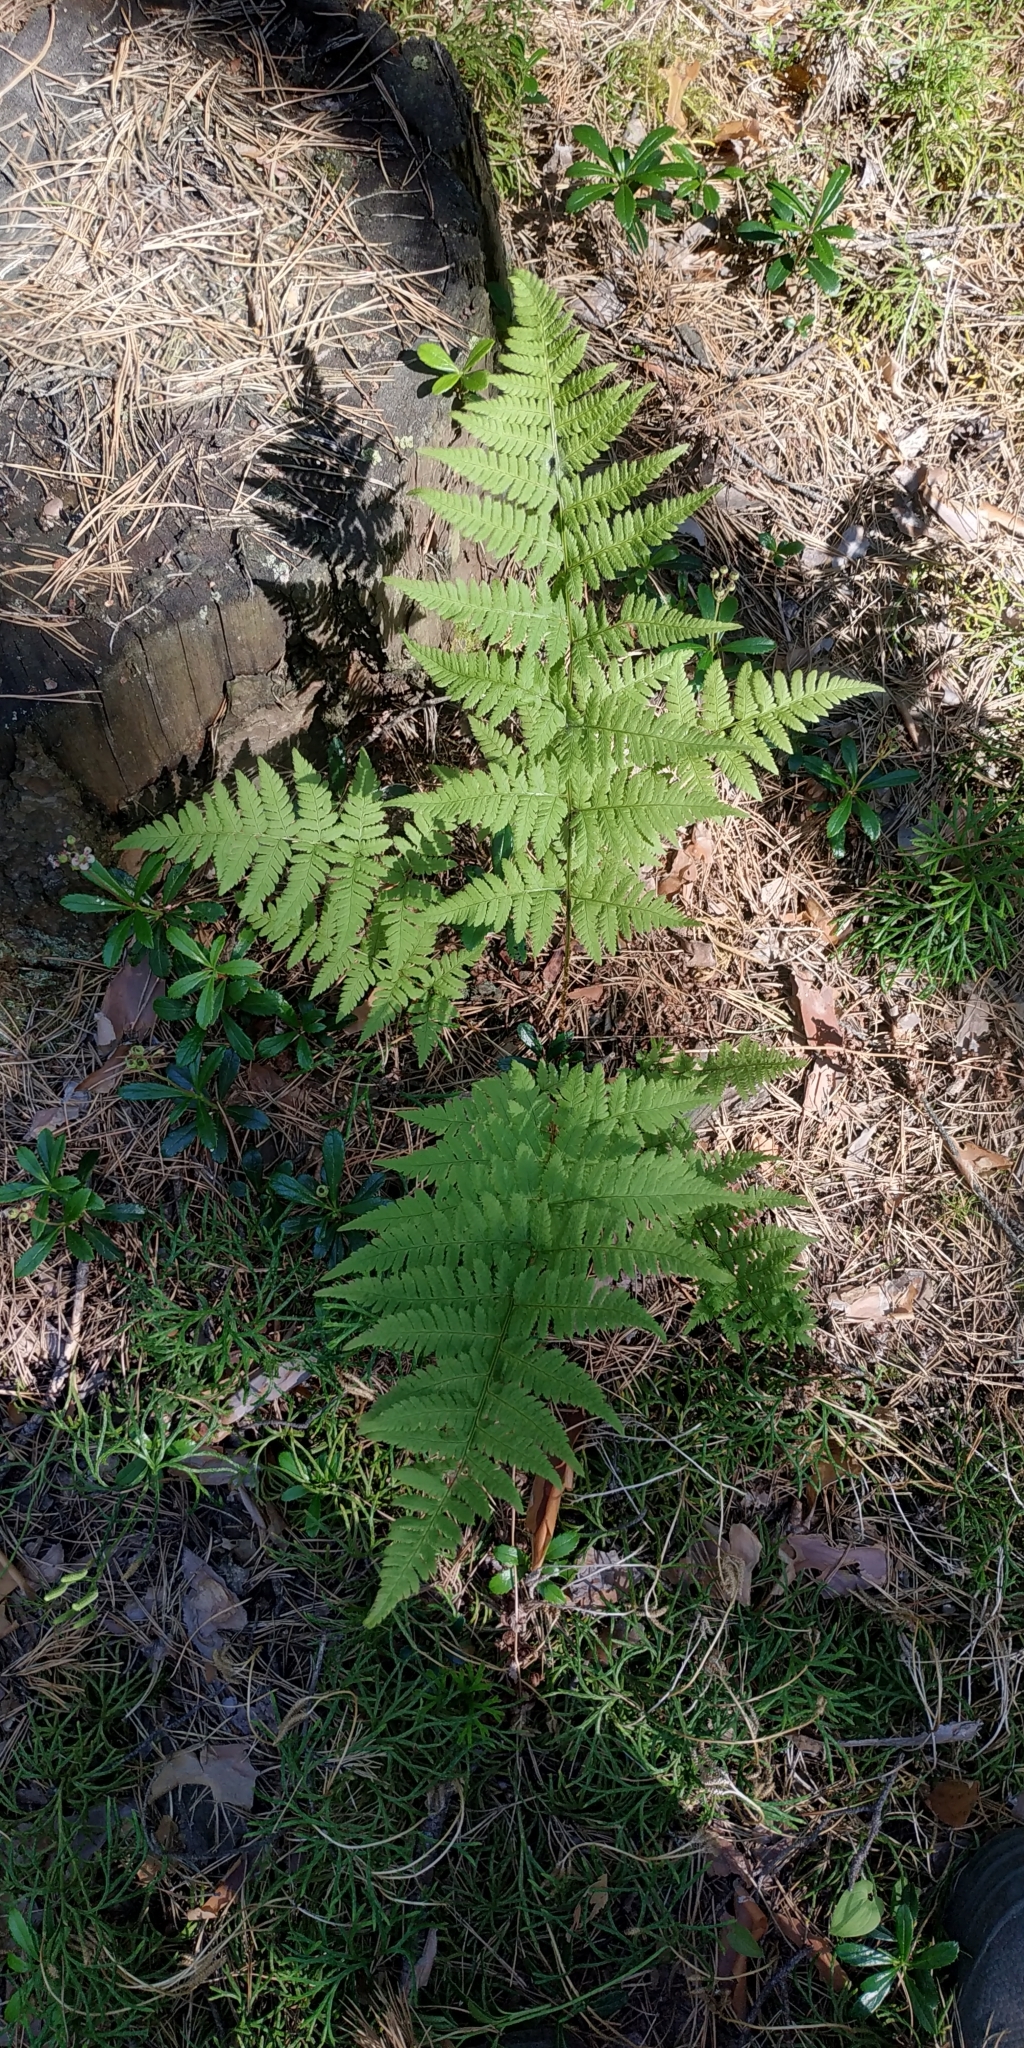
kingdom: Plantae
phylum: Tracheophyta
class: Polypodiopsida
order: Polypodiales
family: Dryopteridaceae
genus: Dryopteris
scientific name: Dryopteris carthusiana
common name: Narrow buckler-fern
